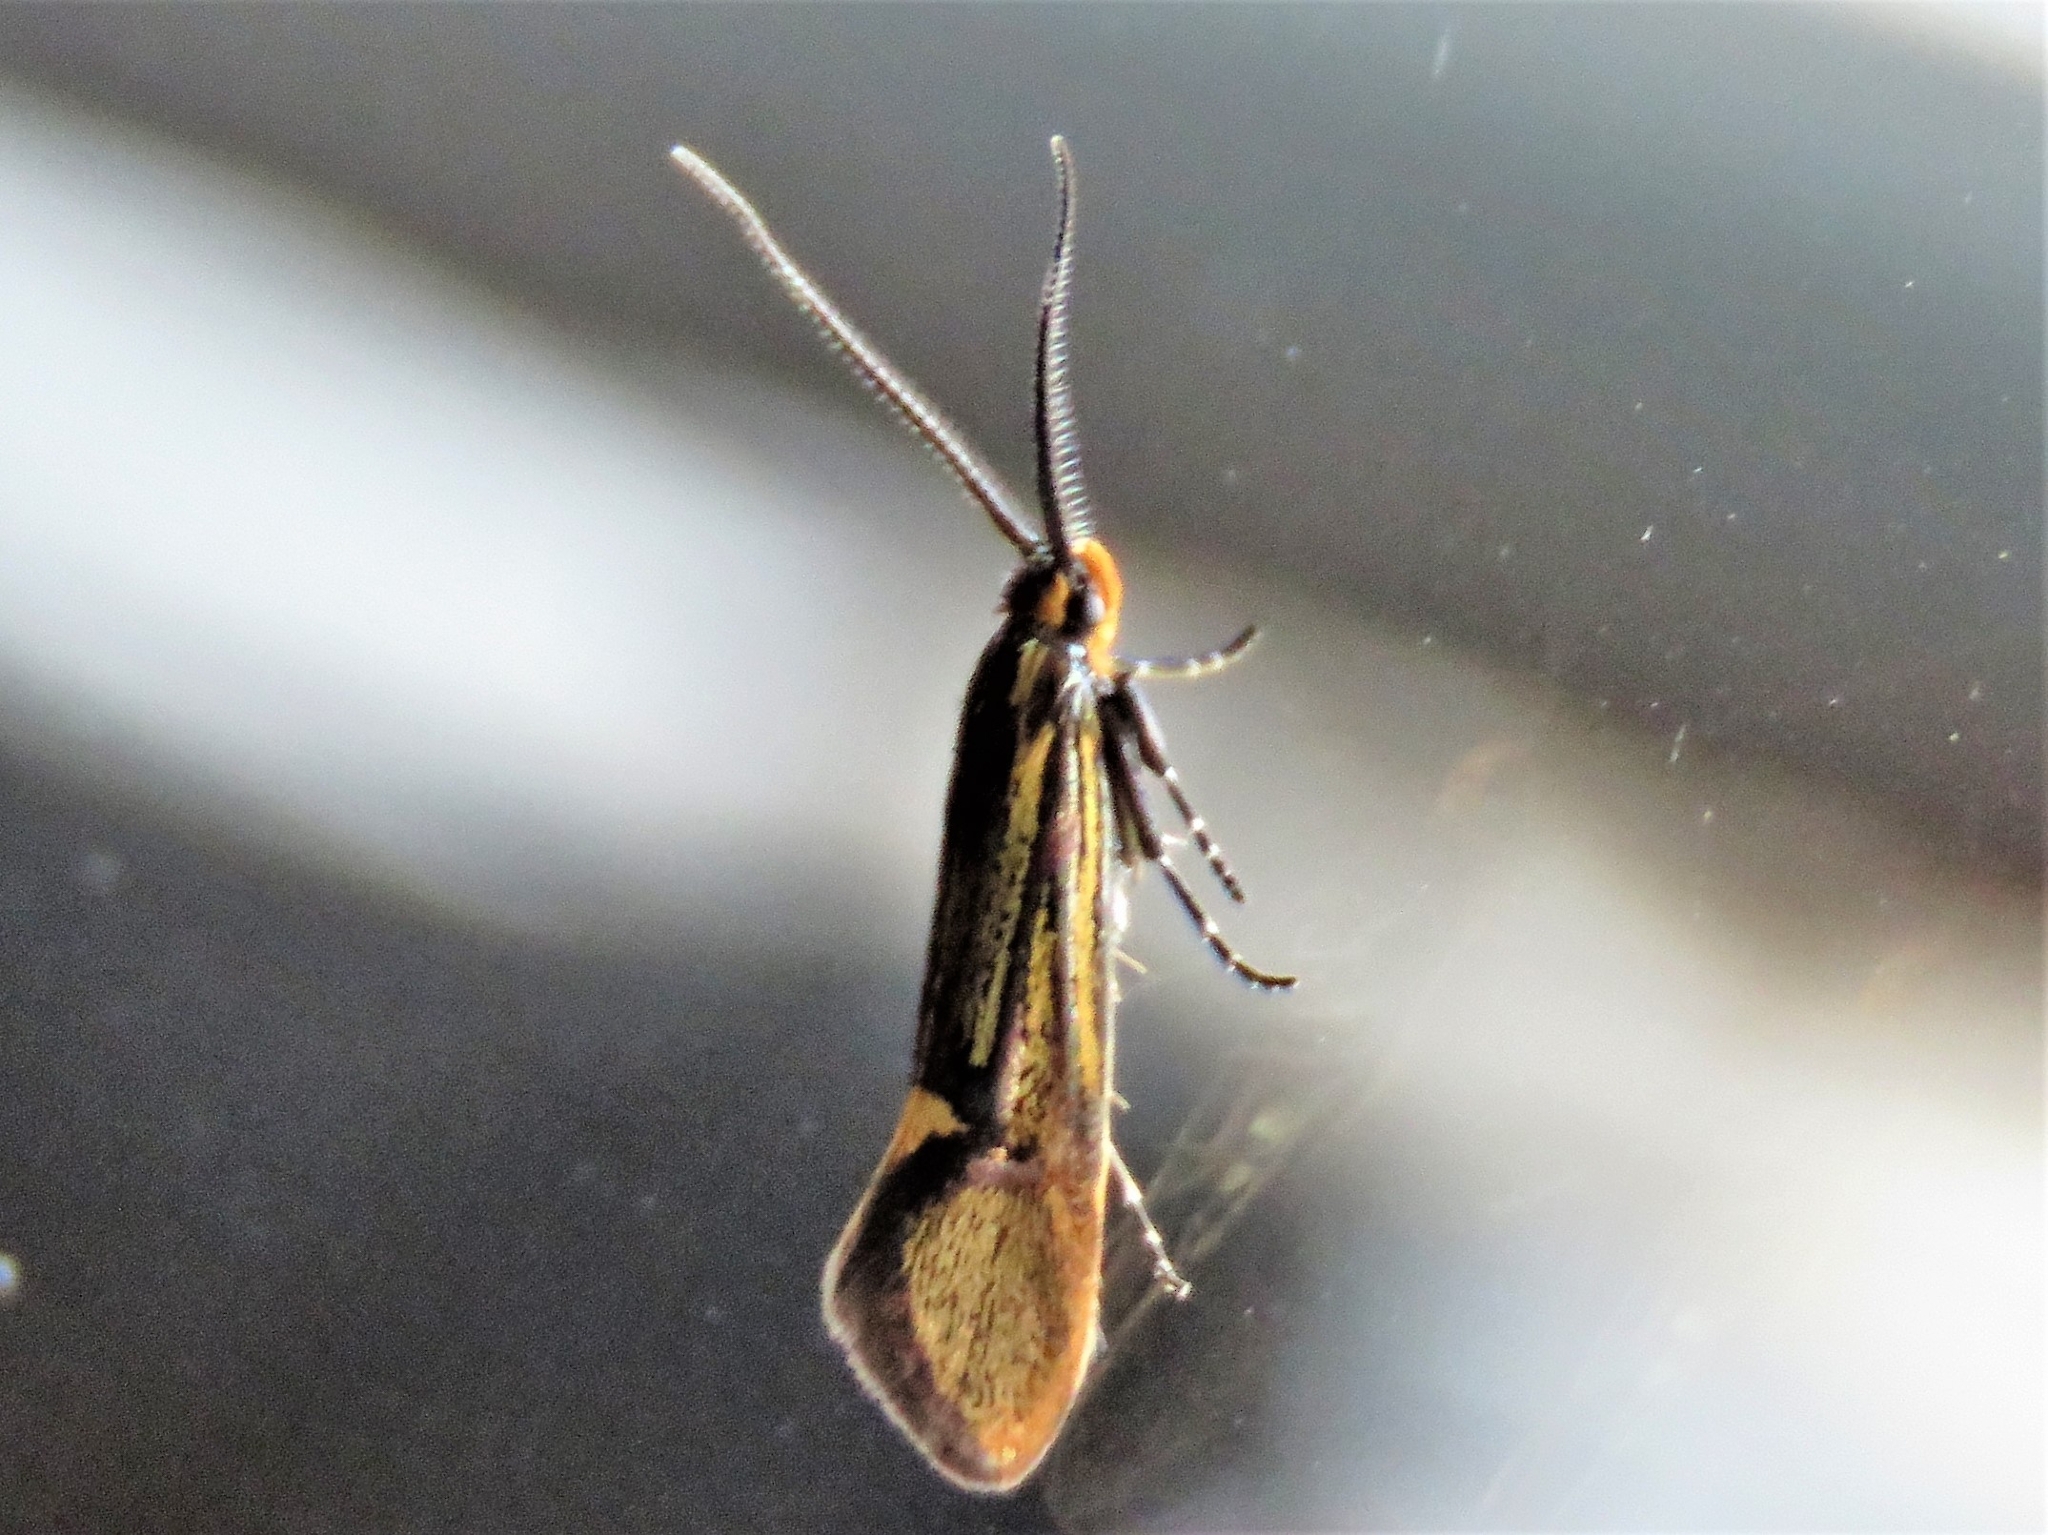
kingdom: Animalia
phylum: Arthropoda
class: Insecta
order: Lepidoptera
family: Oecophoridae
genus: Dafa
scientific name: Dafa Esperia sulphurella
